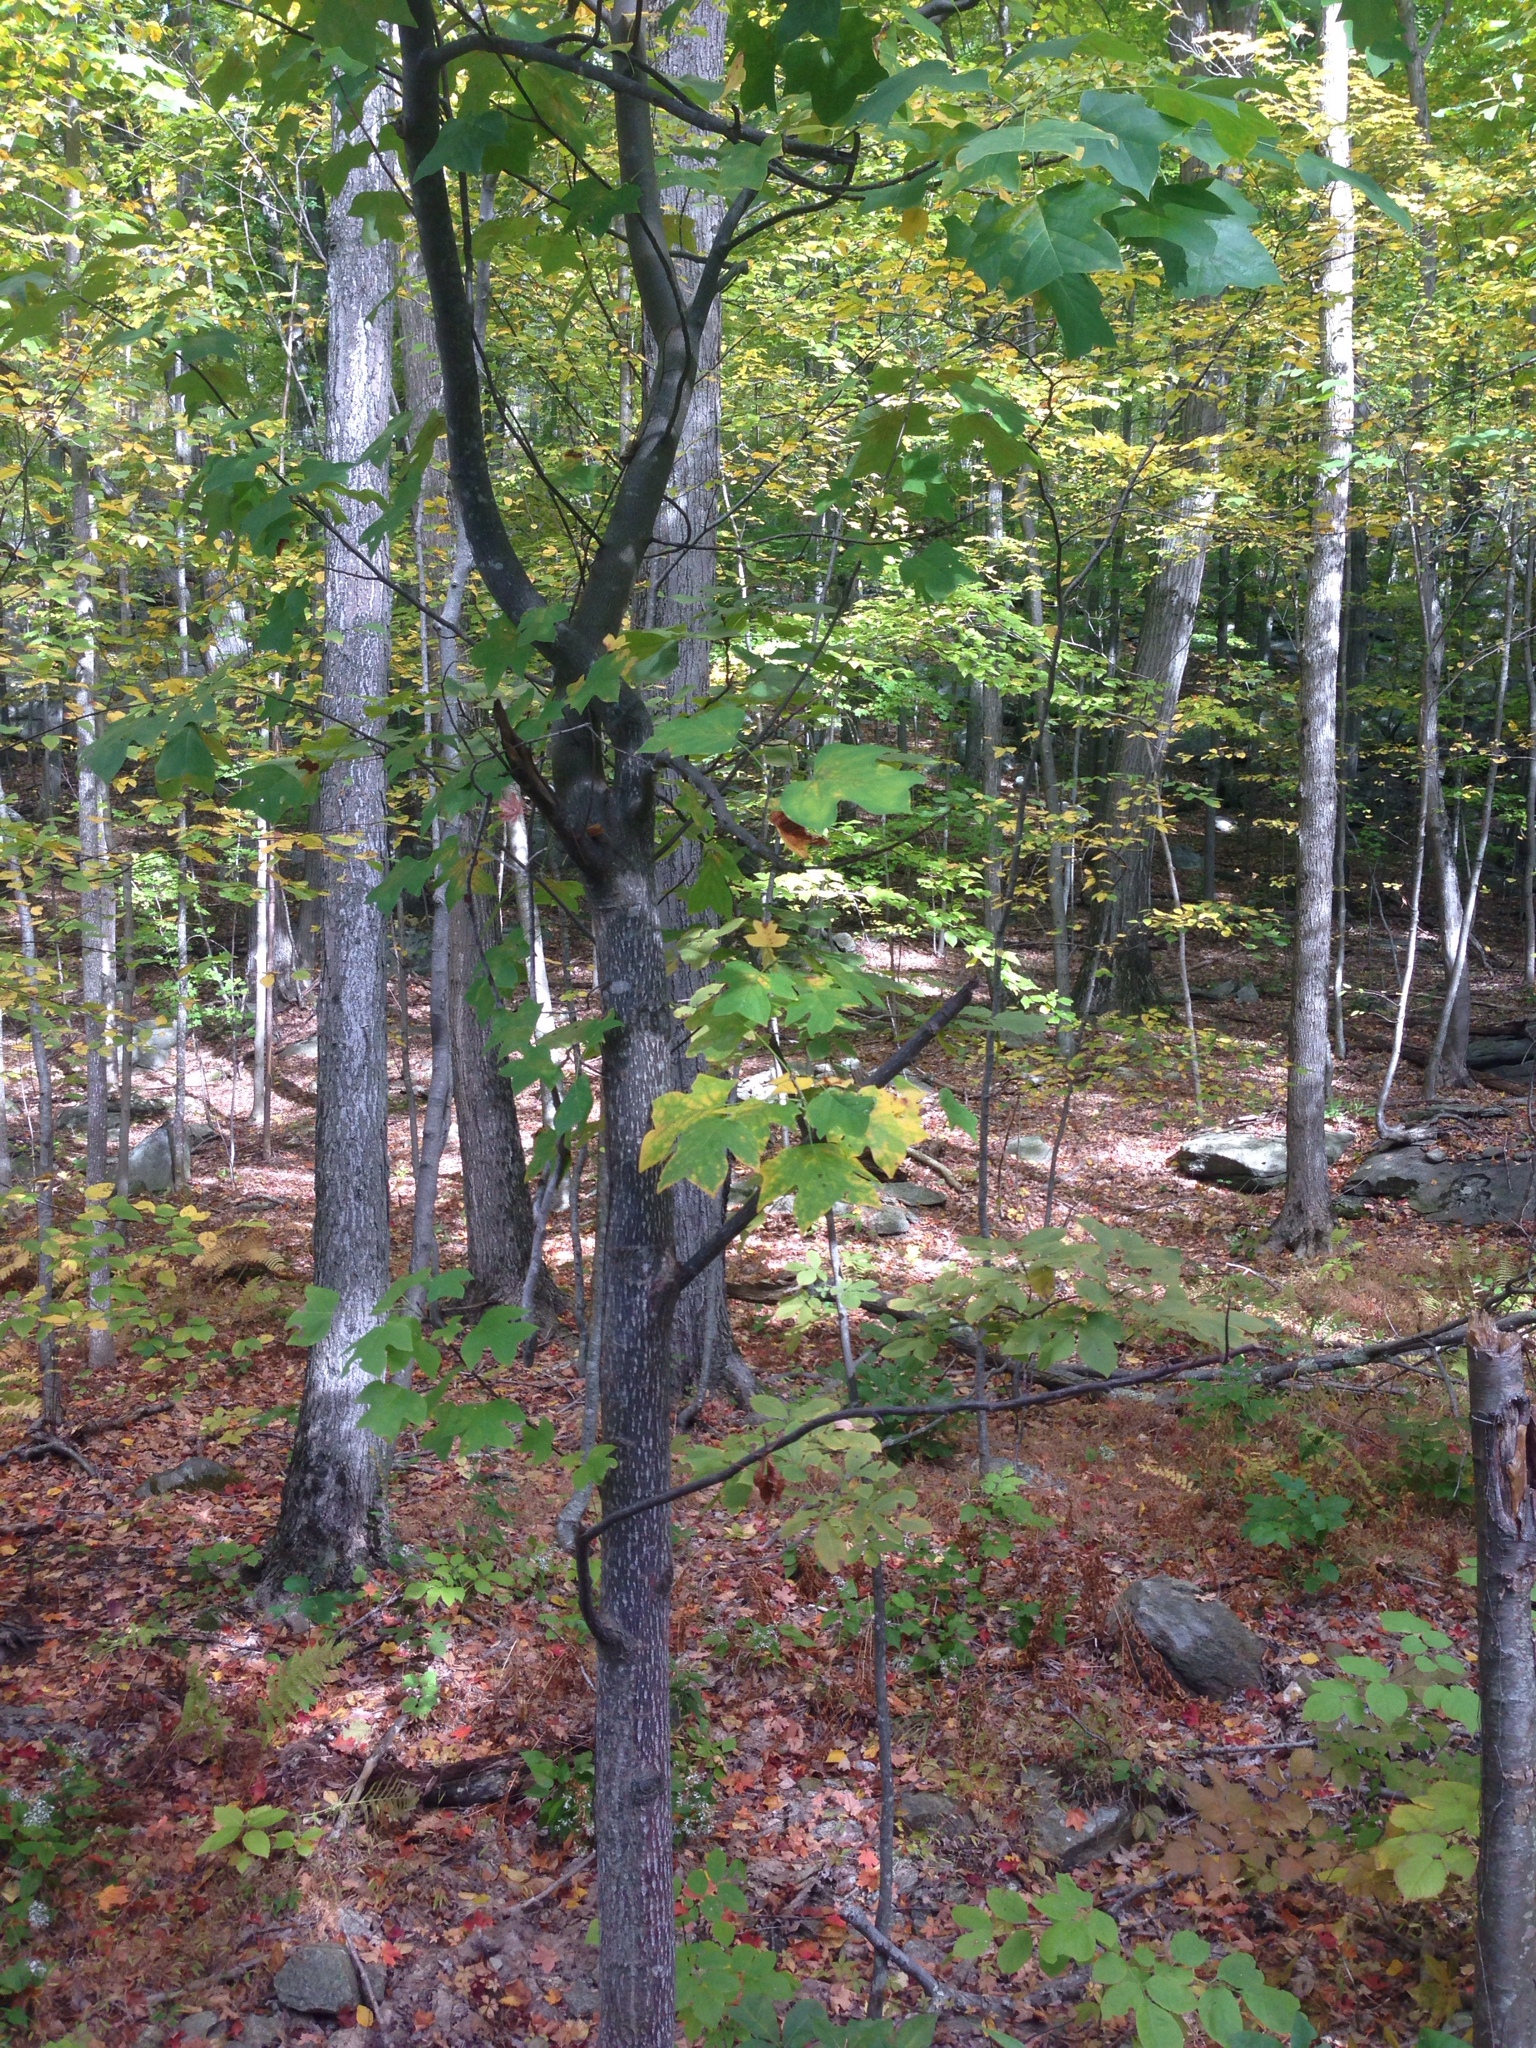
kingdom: Plantae
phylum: Tracheophyta
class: Magnoliopsida
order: Magnoliales
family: Magnoliaceae
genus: Liriodendron
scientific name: Liriodendron tulipifera
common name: Tulip tree
